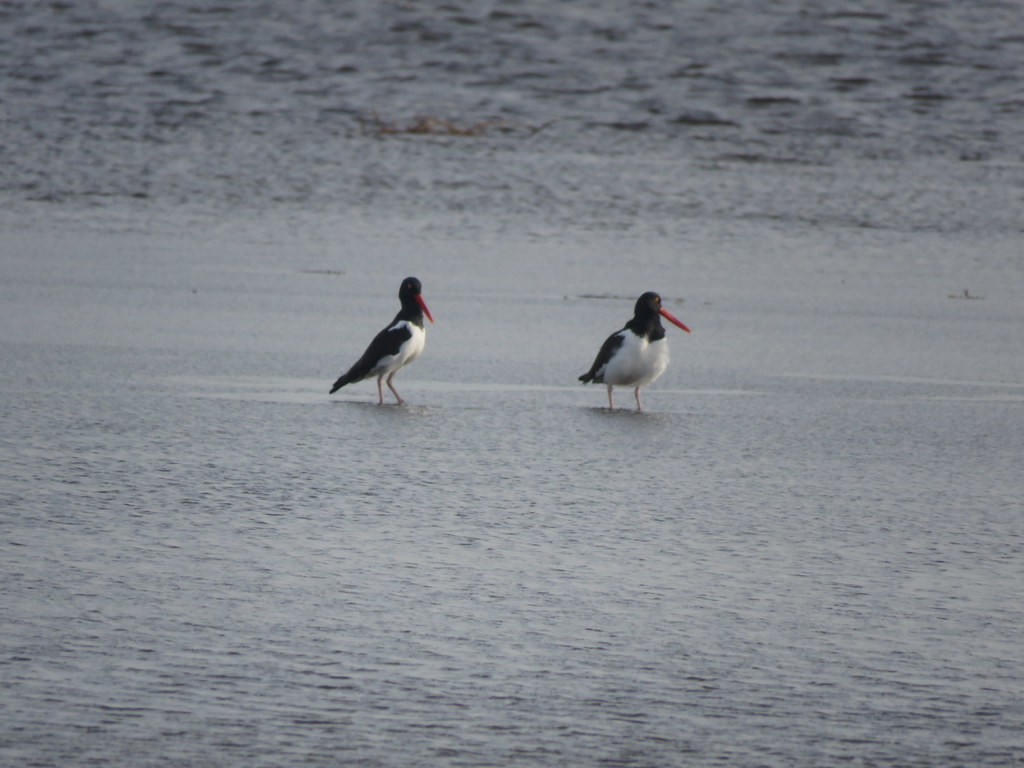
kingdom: Animalia
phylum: Chordata
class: Aves
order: Charadriiformes
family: Haematopodidae
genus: Haematopus
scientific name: Haematopus palliatus
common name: American oystercatcher
